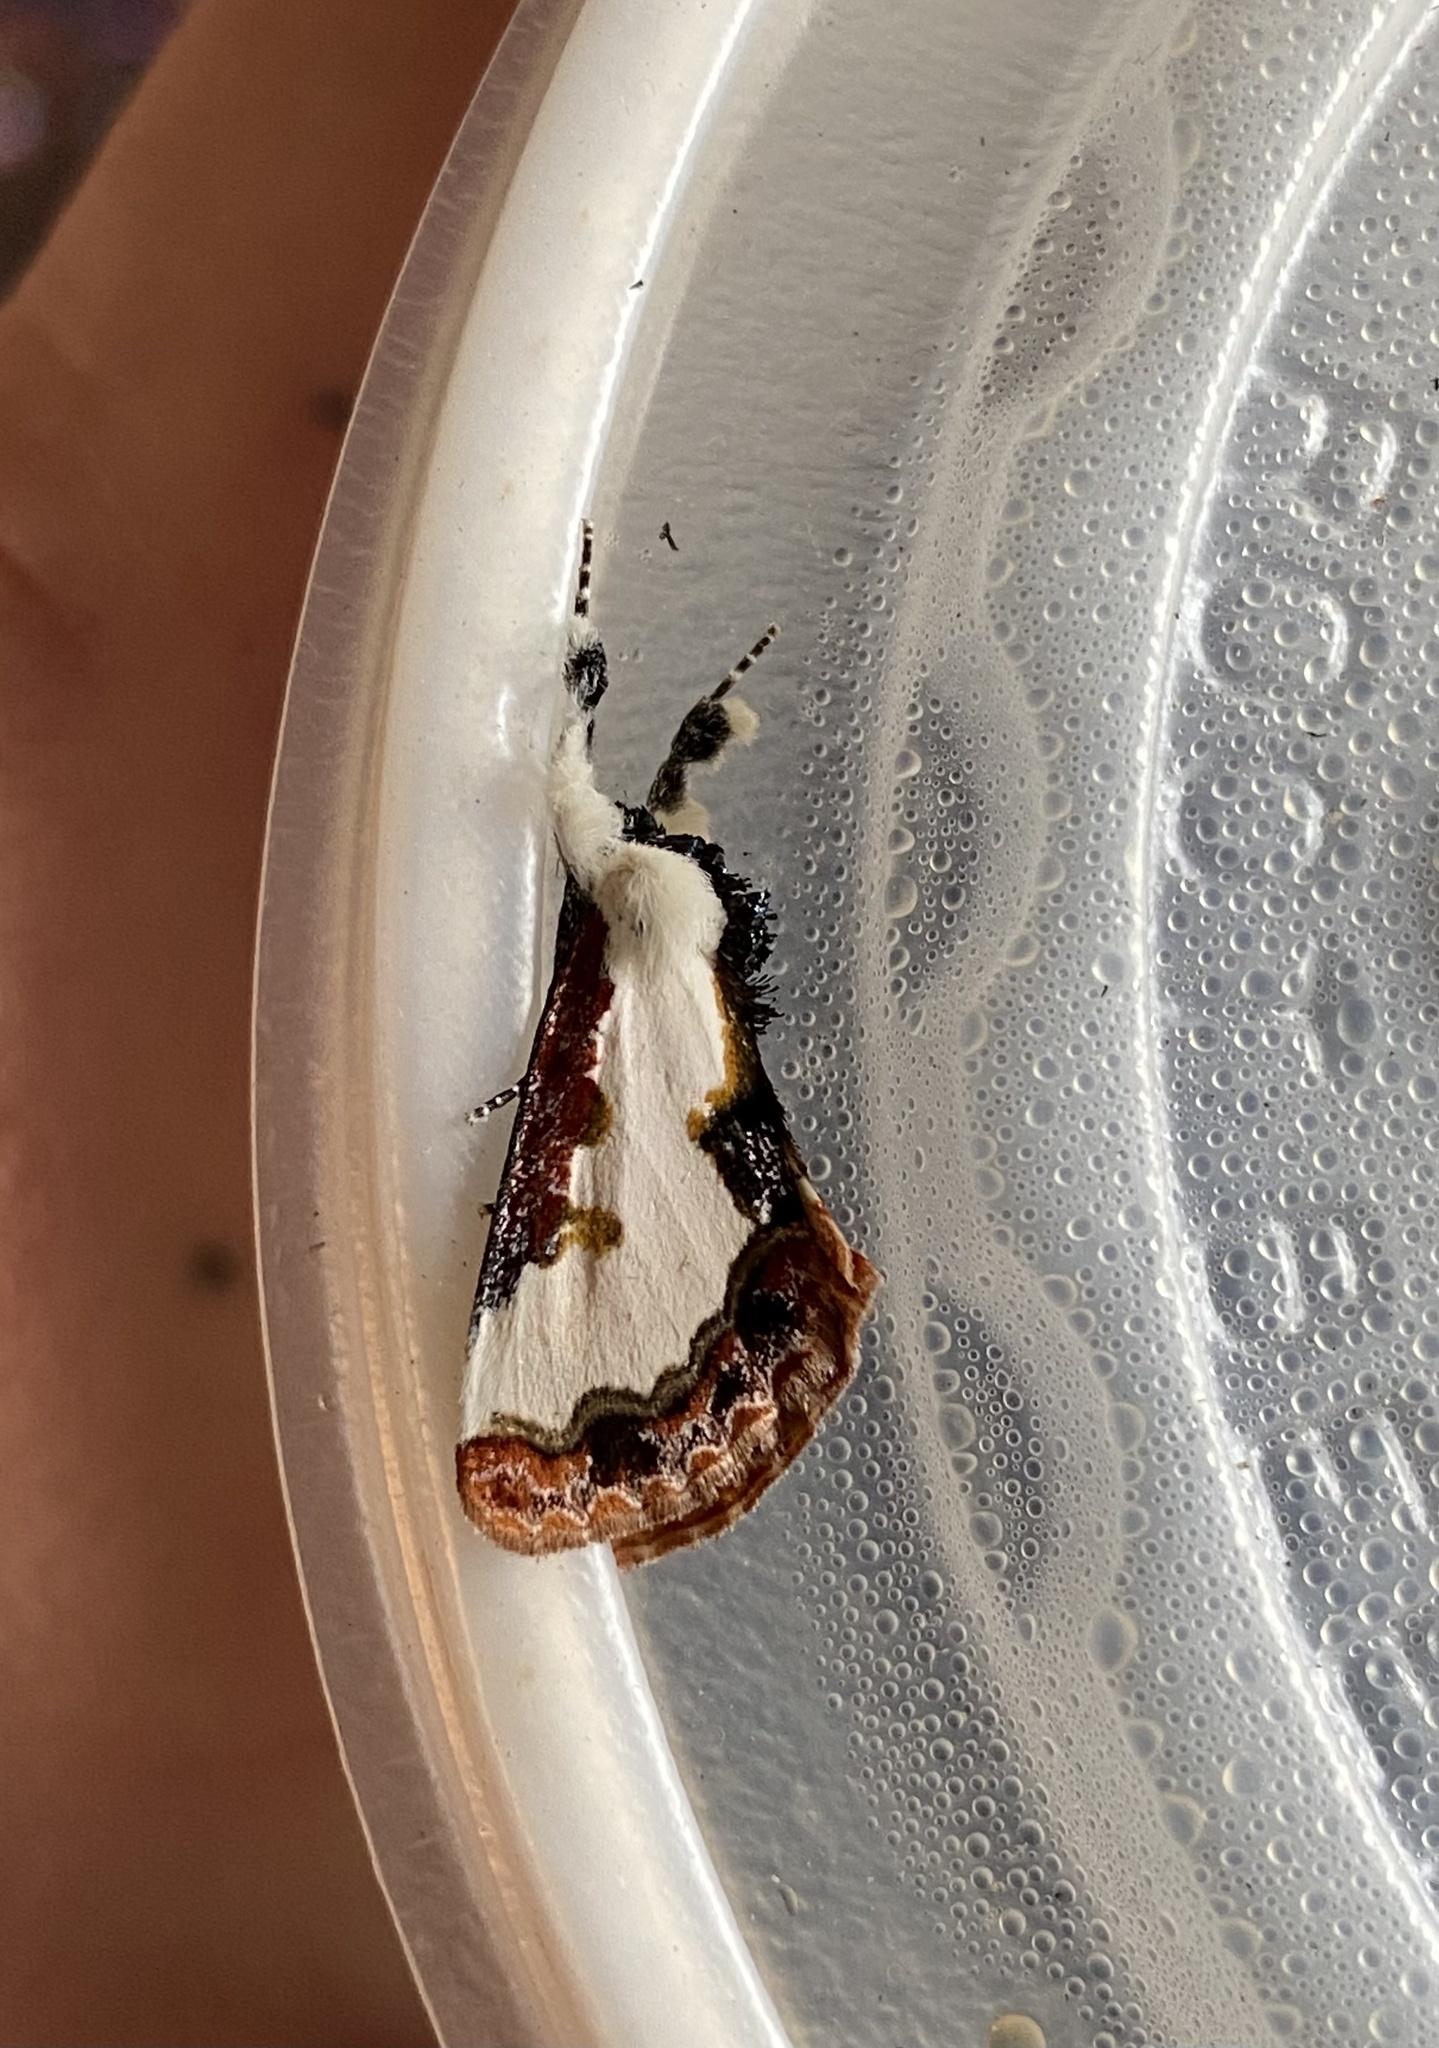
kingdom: Animalia
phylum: Arthropoda
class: Insecta
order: Lepidoptera
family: Noctuidae
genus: Eudryas
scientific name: Eudryas unio
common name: Pearly wood-nymph
